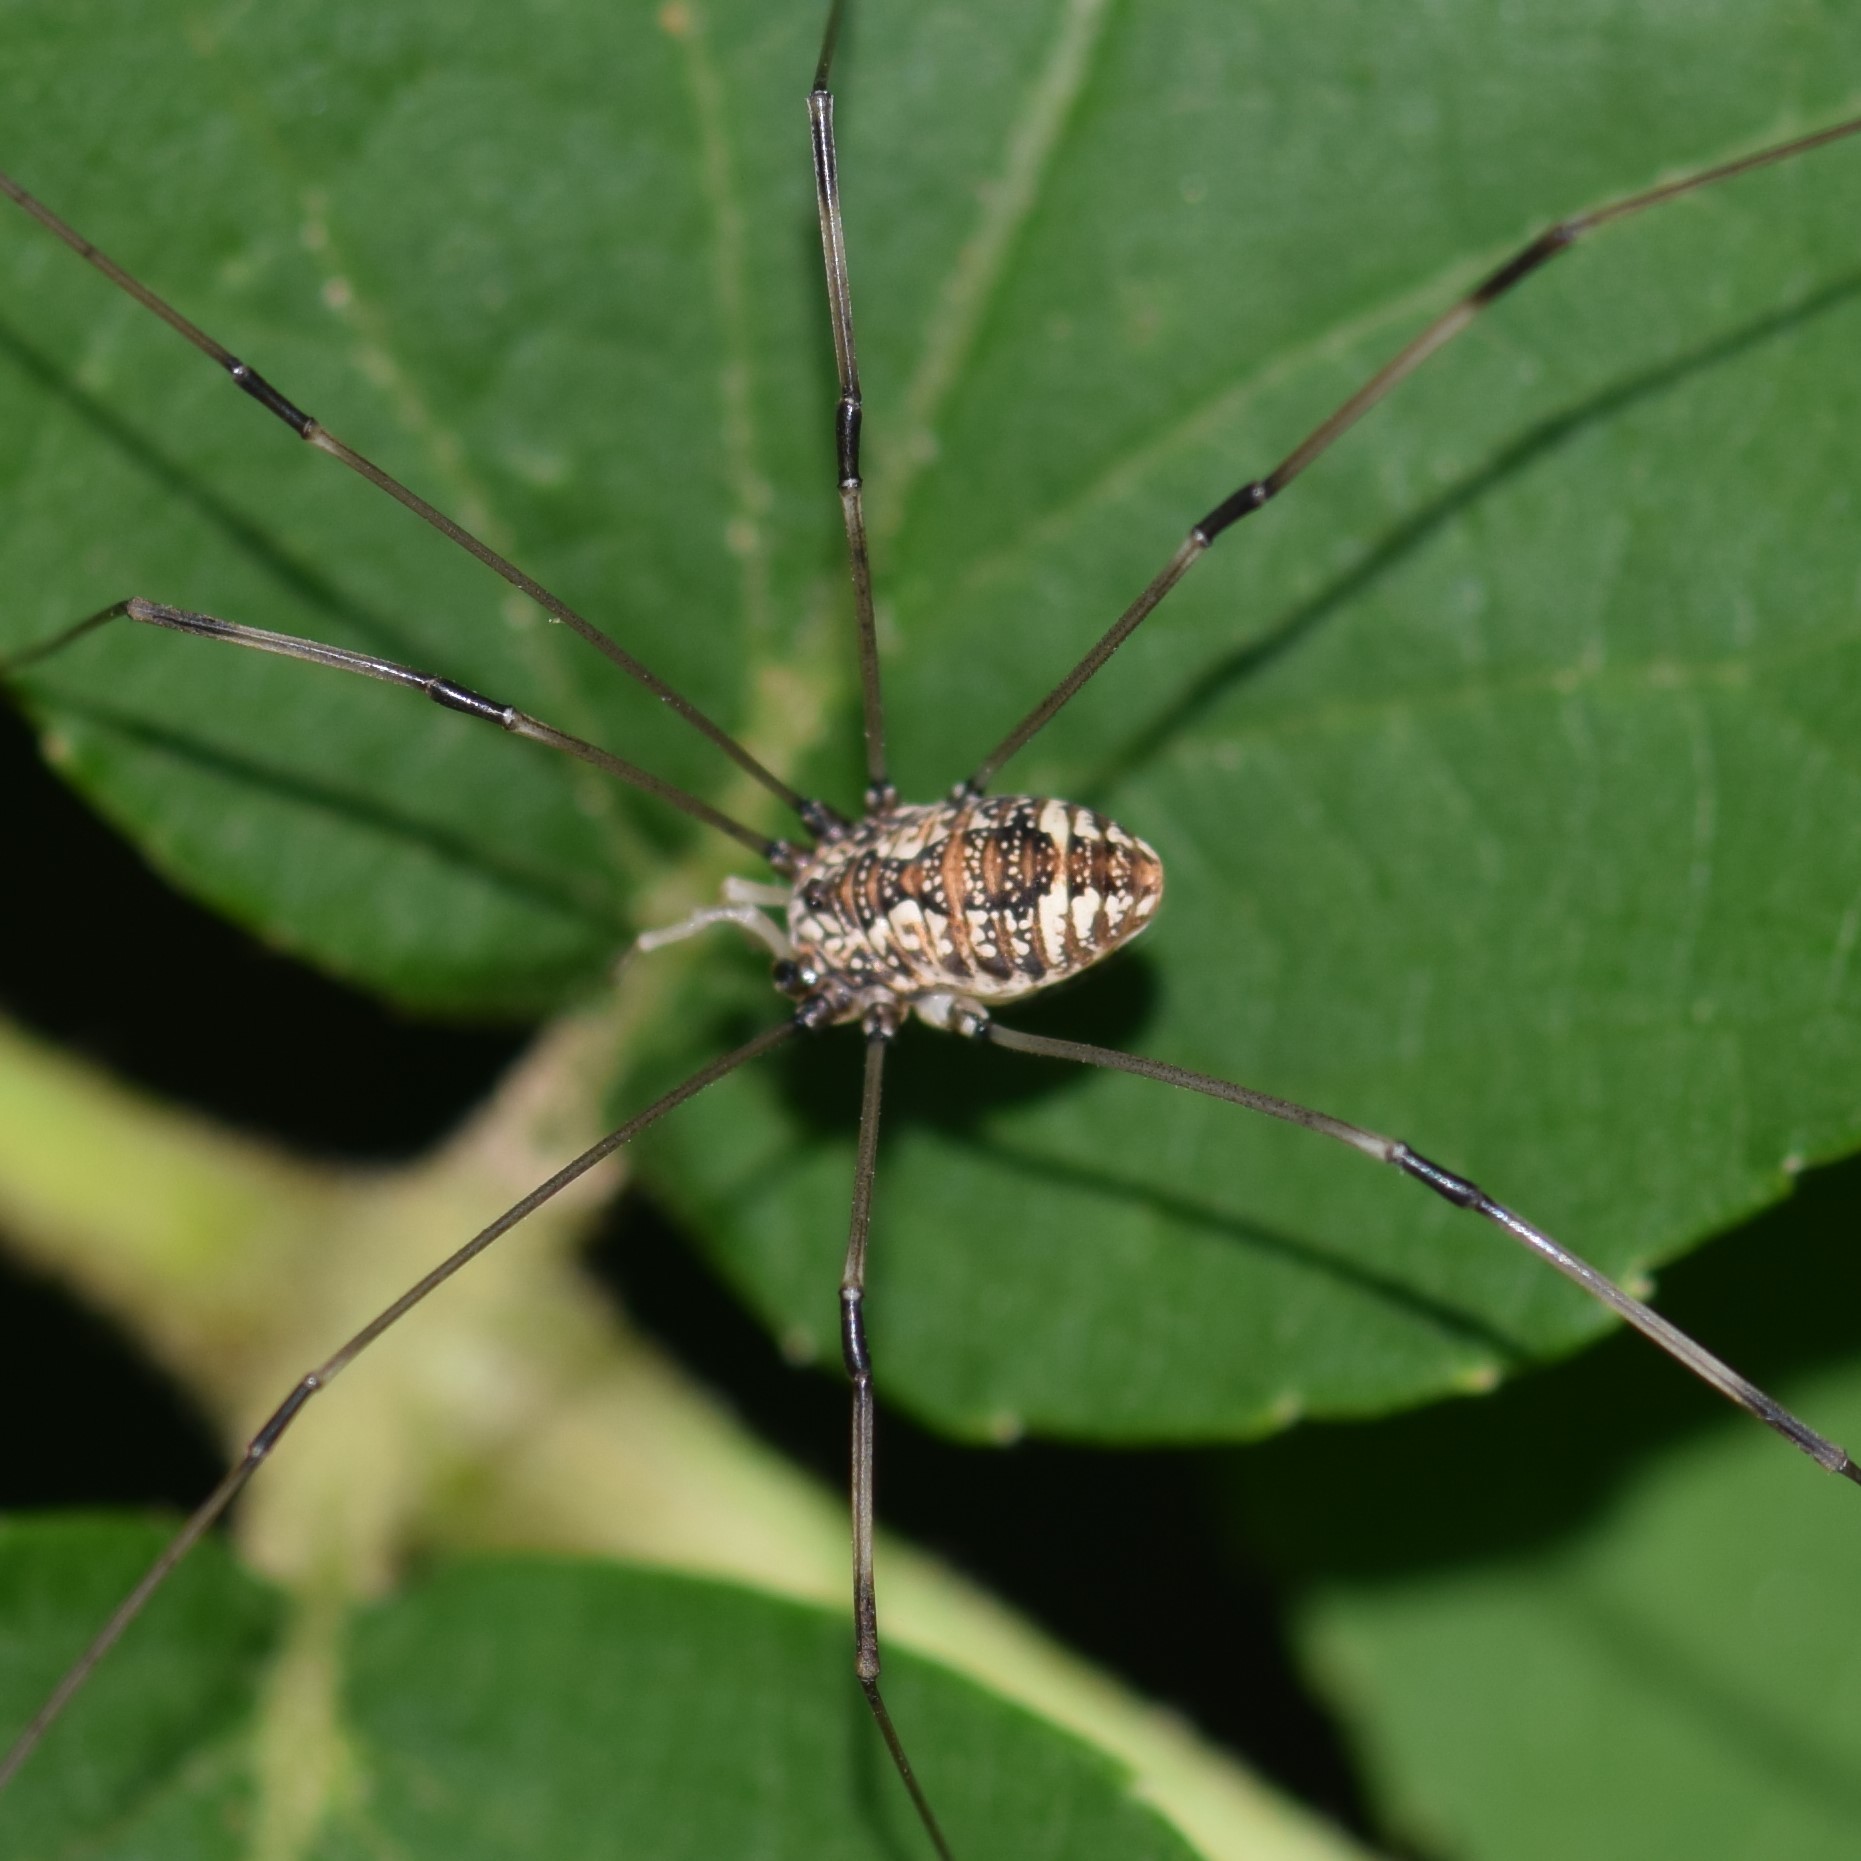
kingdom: Animalia
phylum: Arthropoda
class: Arachnida
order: Opiliones
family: Sclerosomatidae
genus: Leiobunum
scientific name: Leiobunum vittatum
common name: Eastern harvestman
